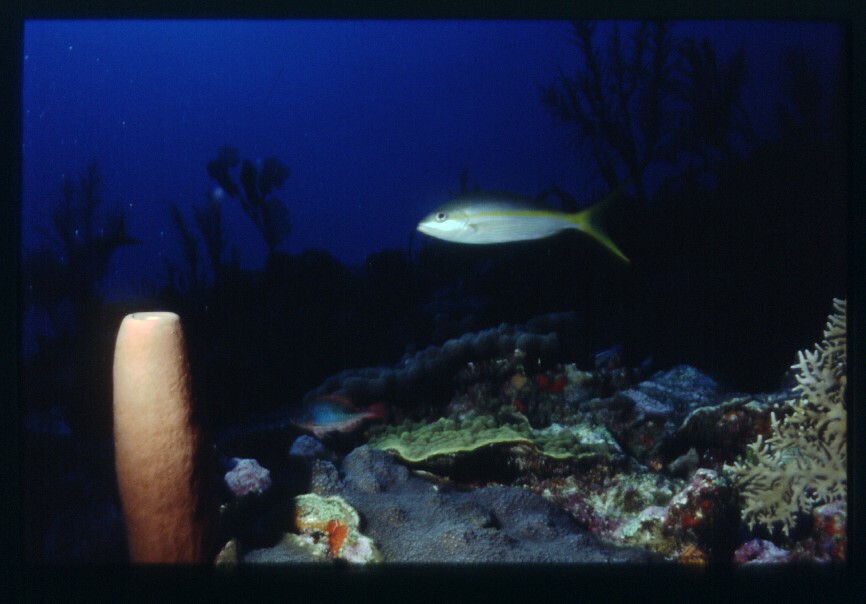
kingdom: Animalia
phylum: Chordata
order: Perciformes
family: Lutjanidae
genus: Ocyurus
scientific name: Ocyurus chrysurus
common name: Yellowtail snapper
